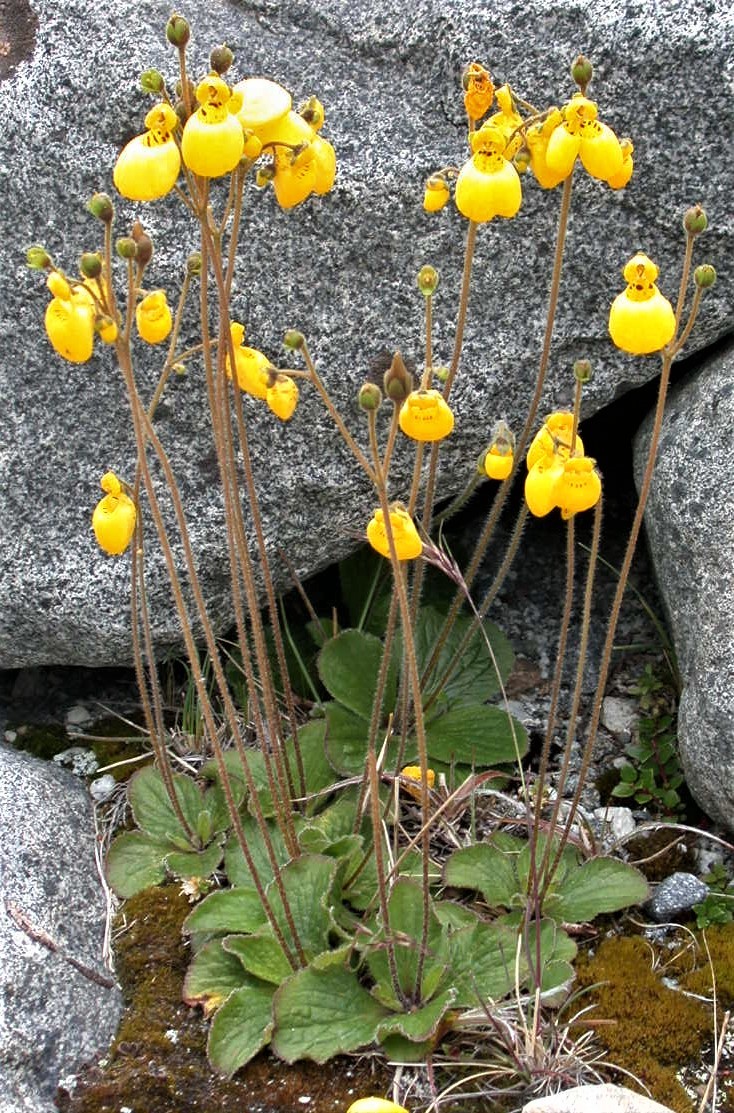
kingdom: Plantae
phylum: Tracheophyta
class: Magnoliopsida
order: Lamiales
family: Calceolariaceae
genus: Calceolaria
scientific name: Calceolaria biflora
